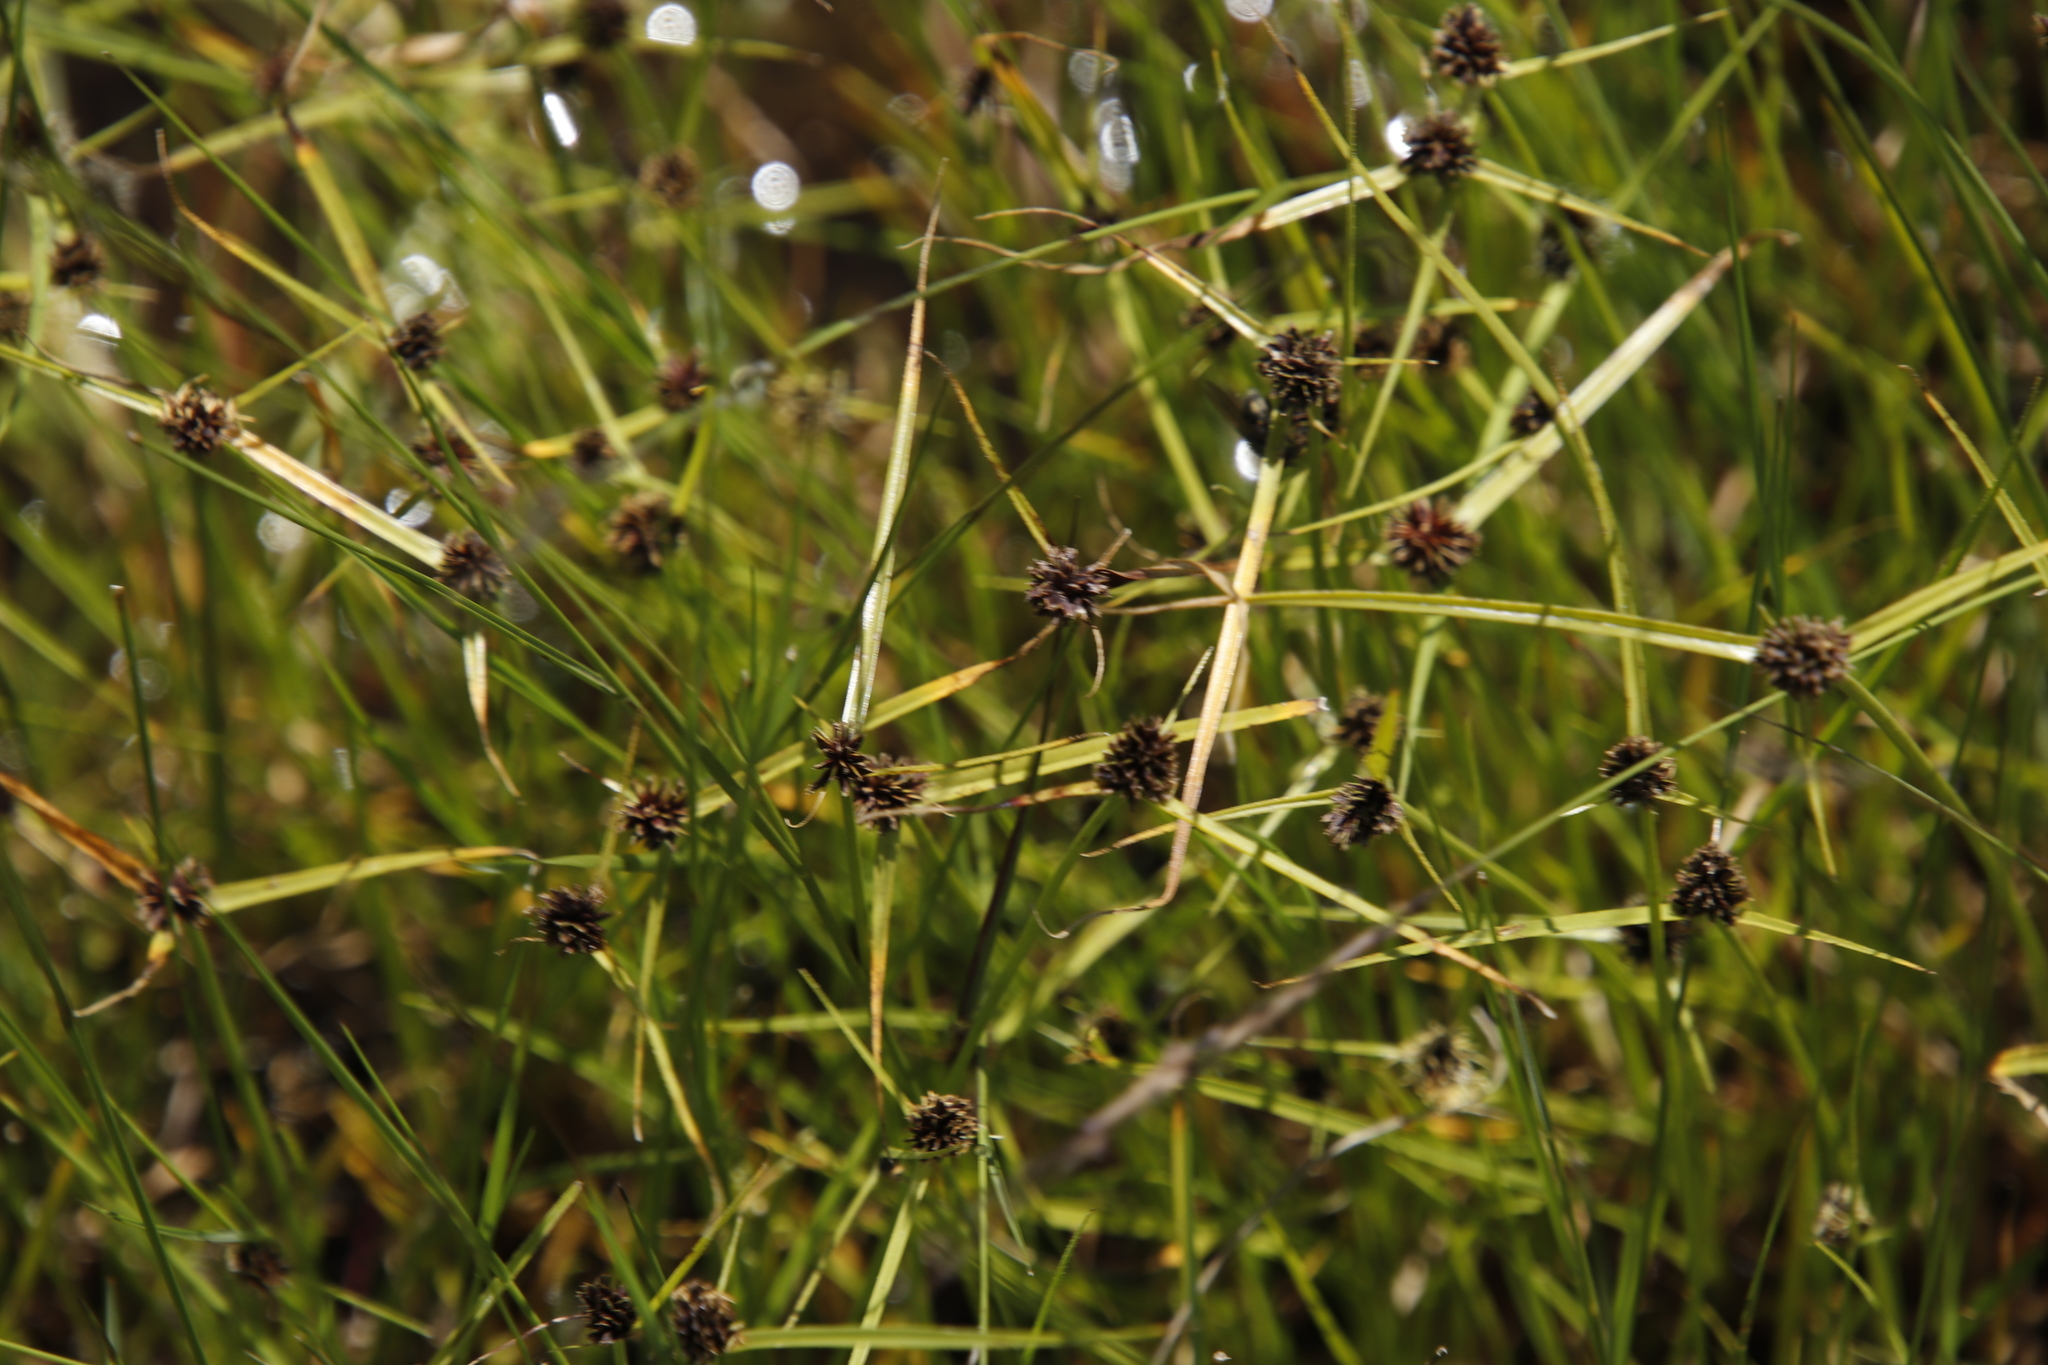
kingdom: Plantae
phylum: Tracheophyta
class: Liliopsida
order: Poales
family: Cyperaceae
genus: Cyperus
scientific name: Cyperus bracheilema
